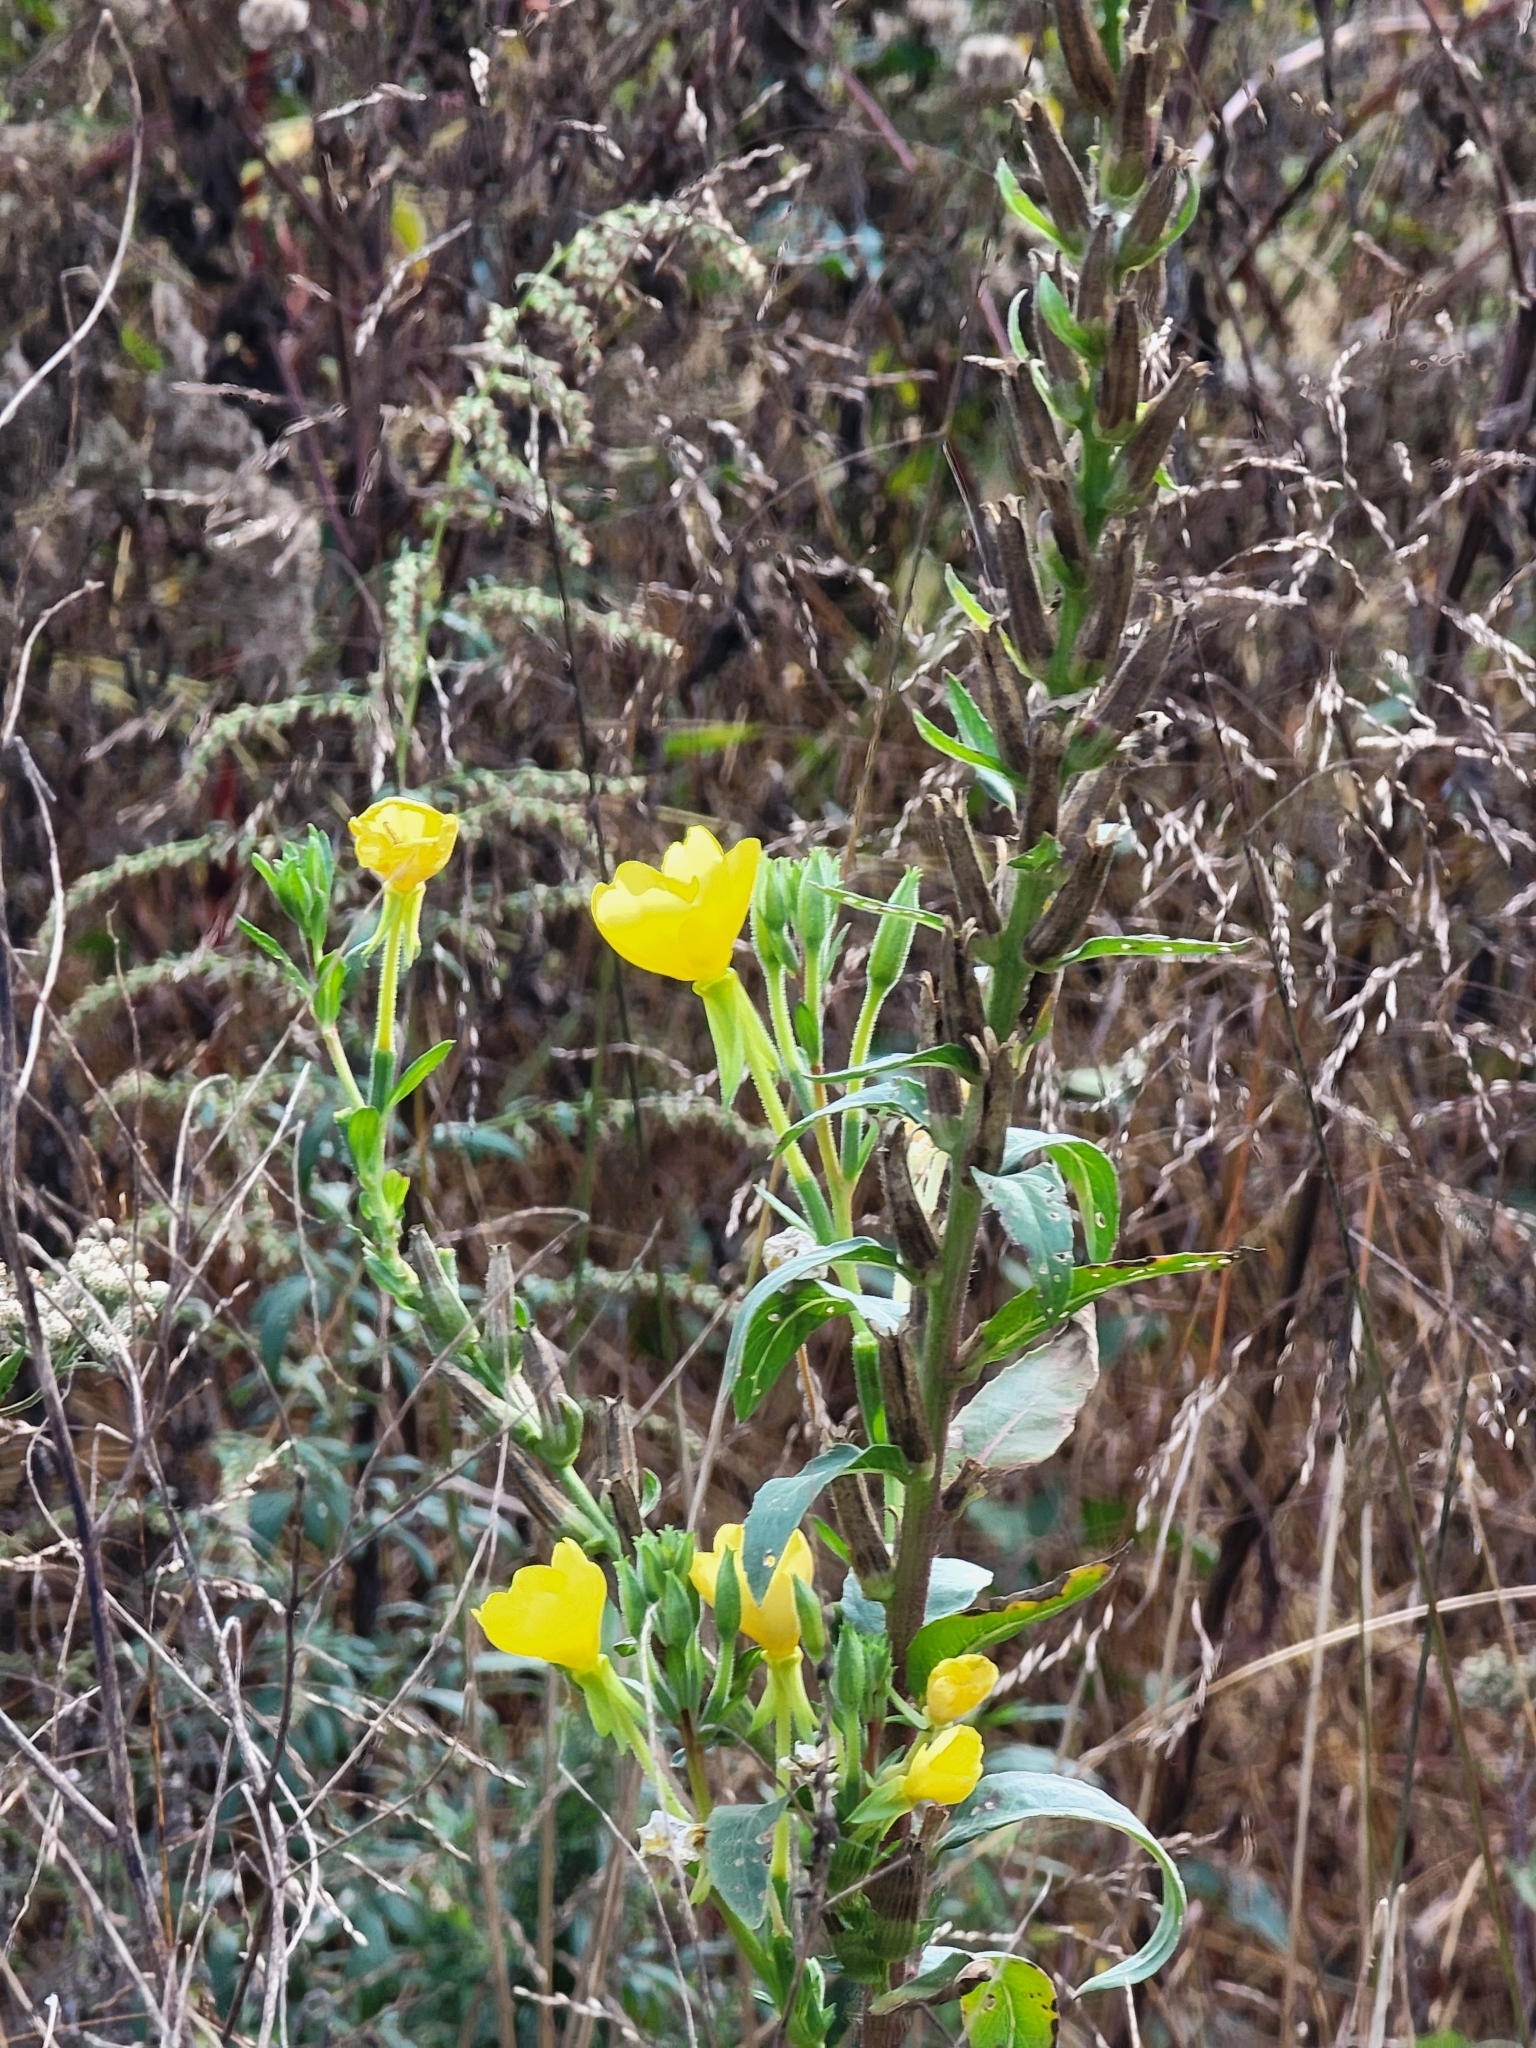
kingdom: Plantae
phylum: Tracheophyta
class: Magnoliopsida
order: Myrtales
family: Onagraceae
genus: Oenothera
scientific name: Oenothera biennis
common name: Common evening-primrose
